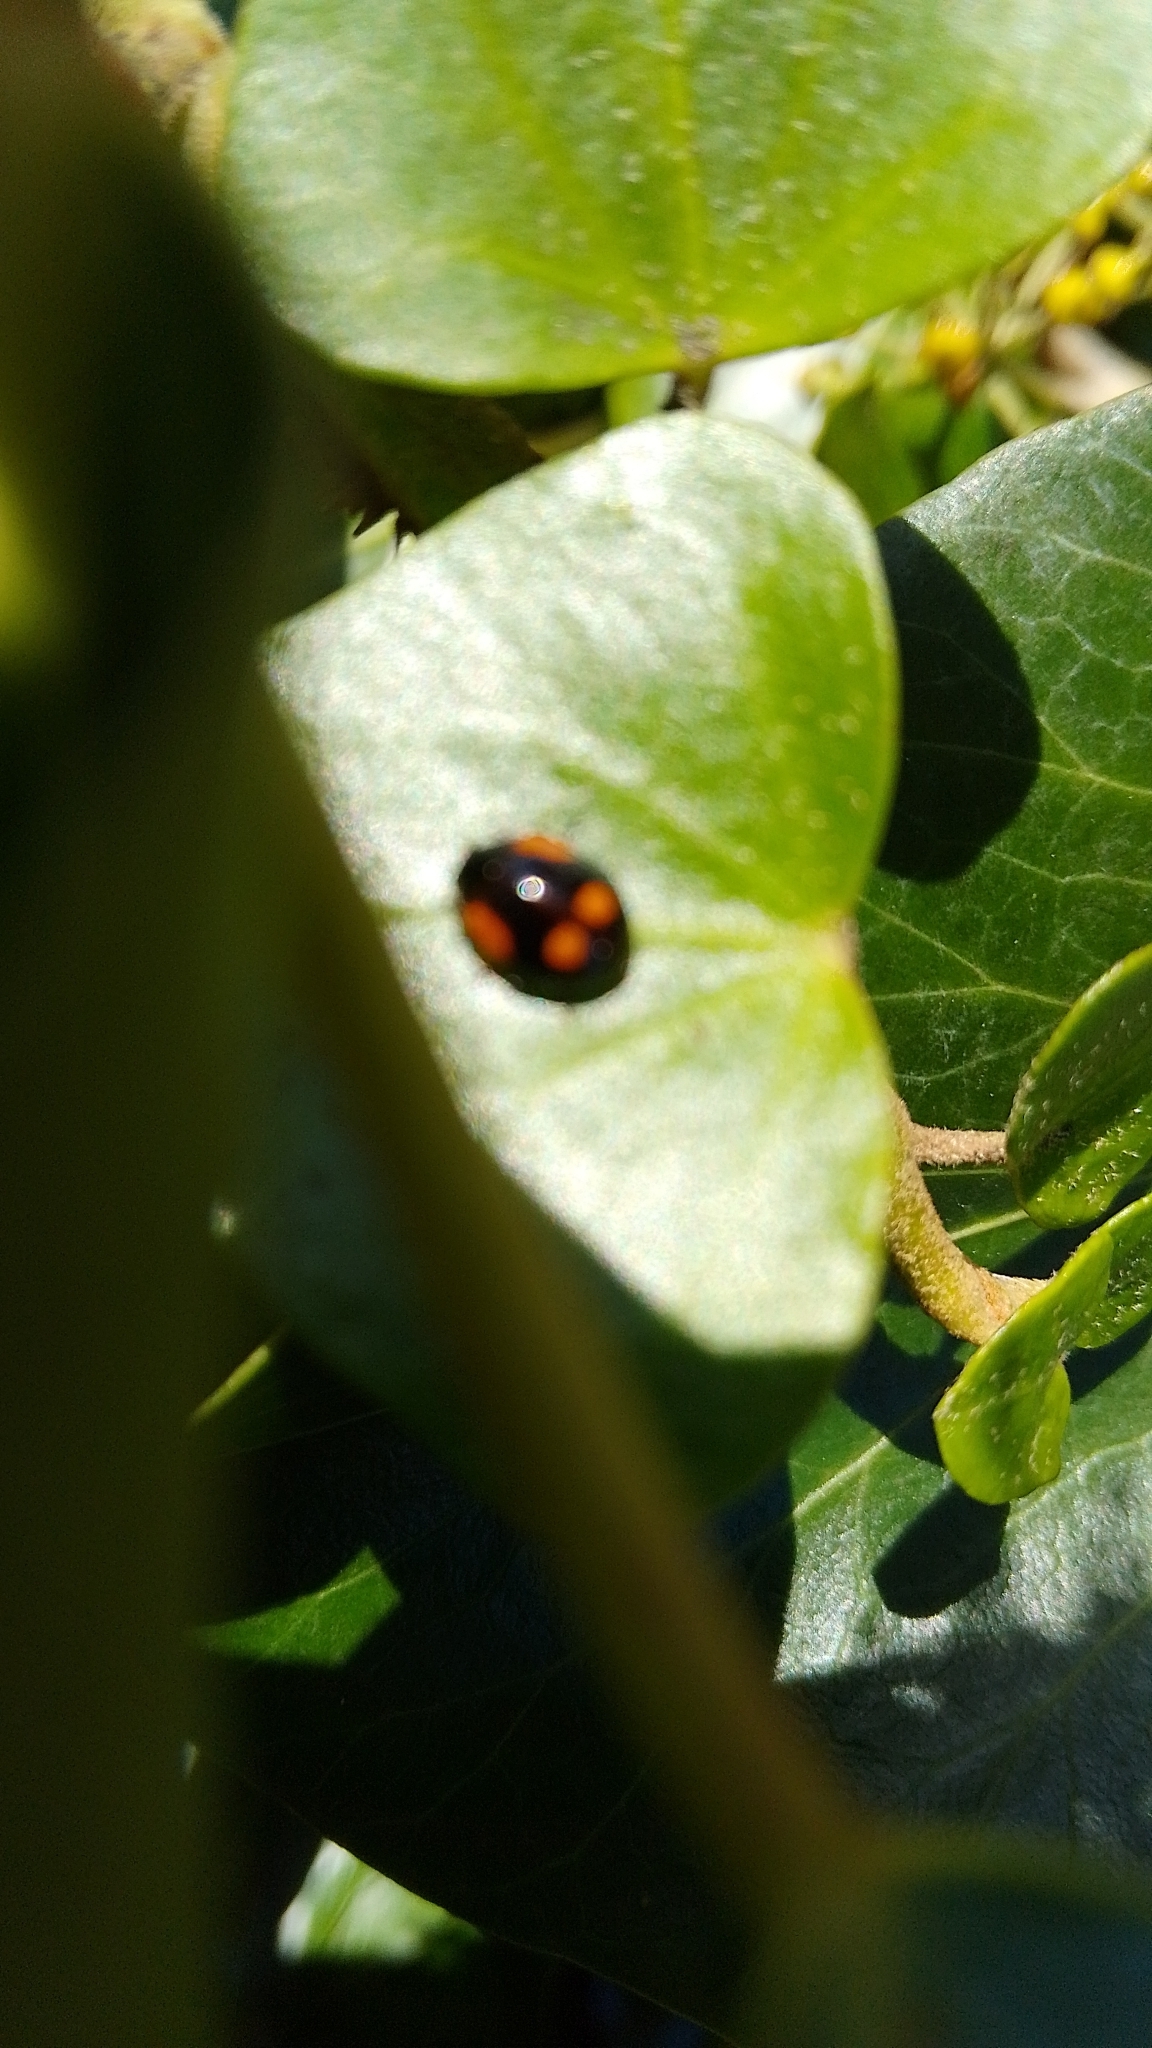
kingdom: Animalia
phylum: Arthropoda
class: Insecta
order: Coleoptera
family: Coccinellidae
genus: Adalia
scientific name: Adalia bipunctata
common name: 2-spot ladybird
